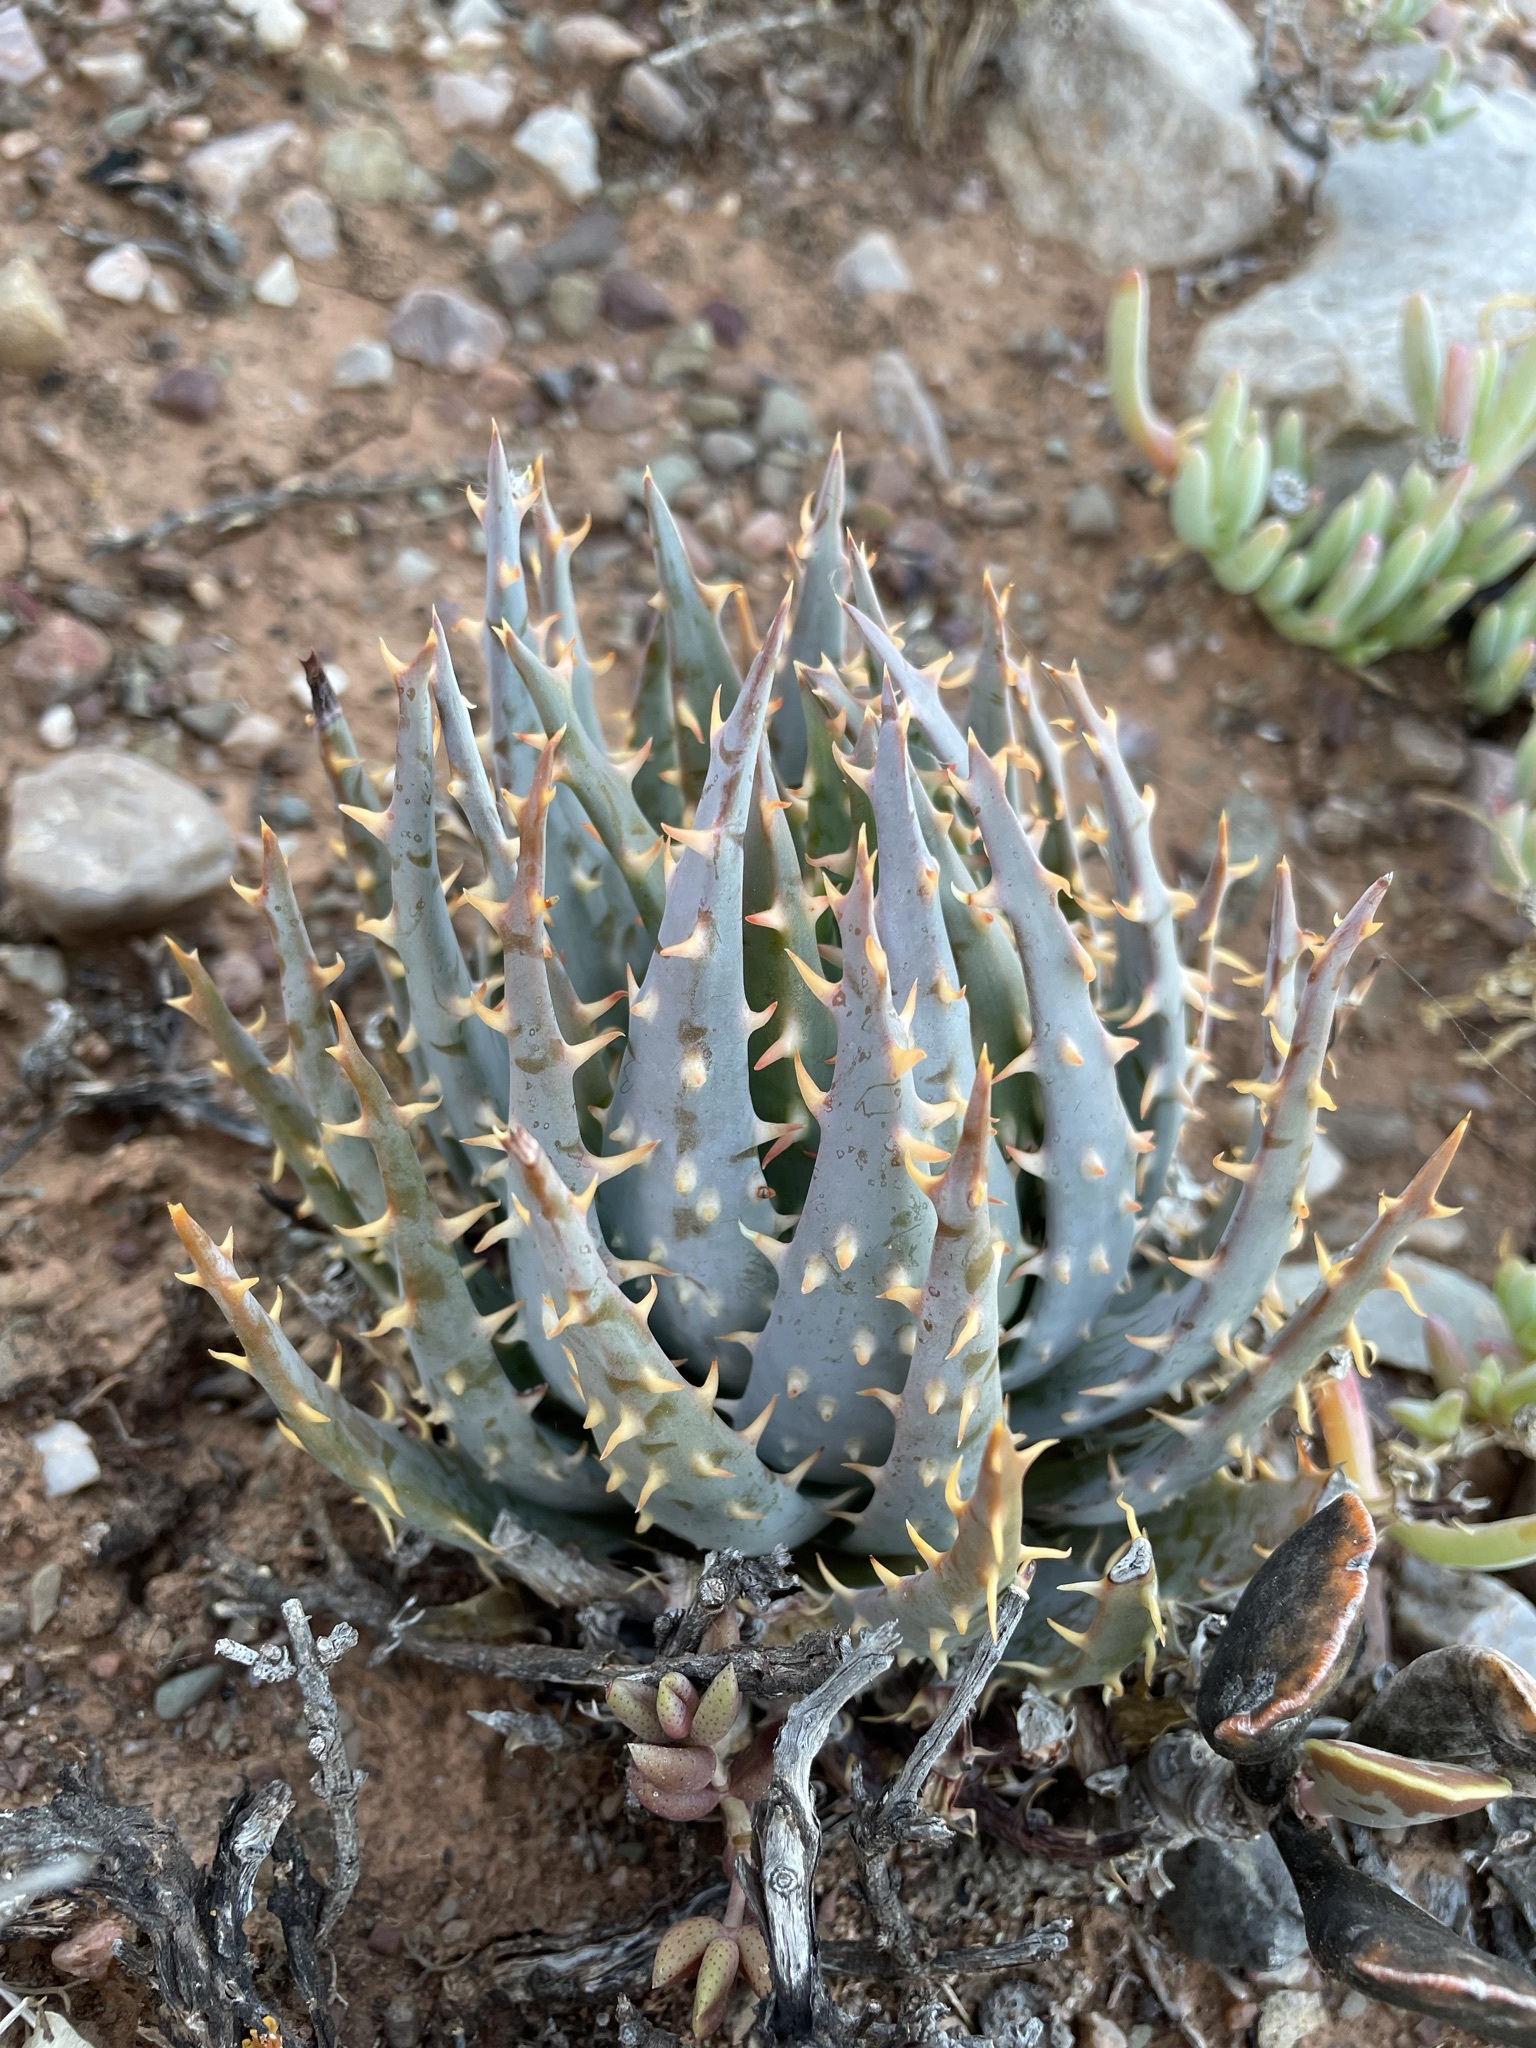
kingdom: Plantae
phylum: Tracheophyta
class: Liliopsida
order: Asparagales
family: Asphodelaceae
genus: Aloe
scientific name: Aloe longistyla
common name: Karoo aloe
